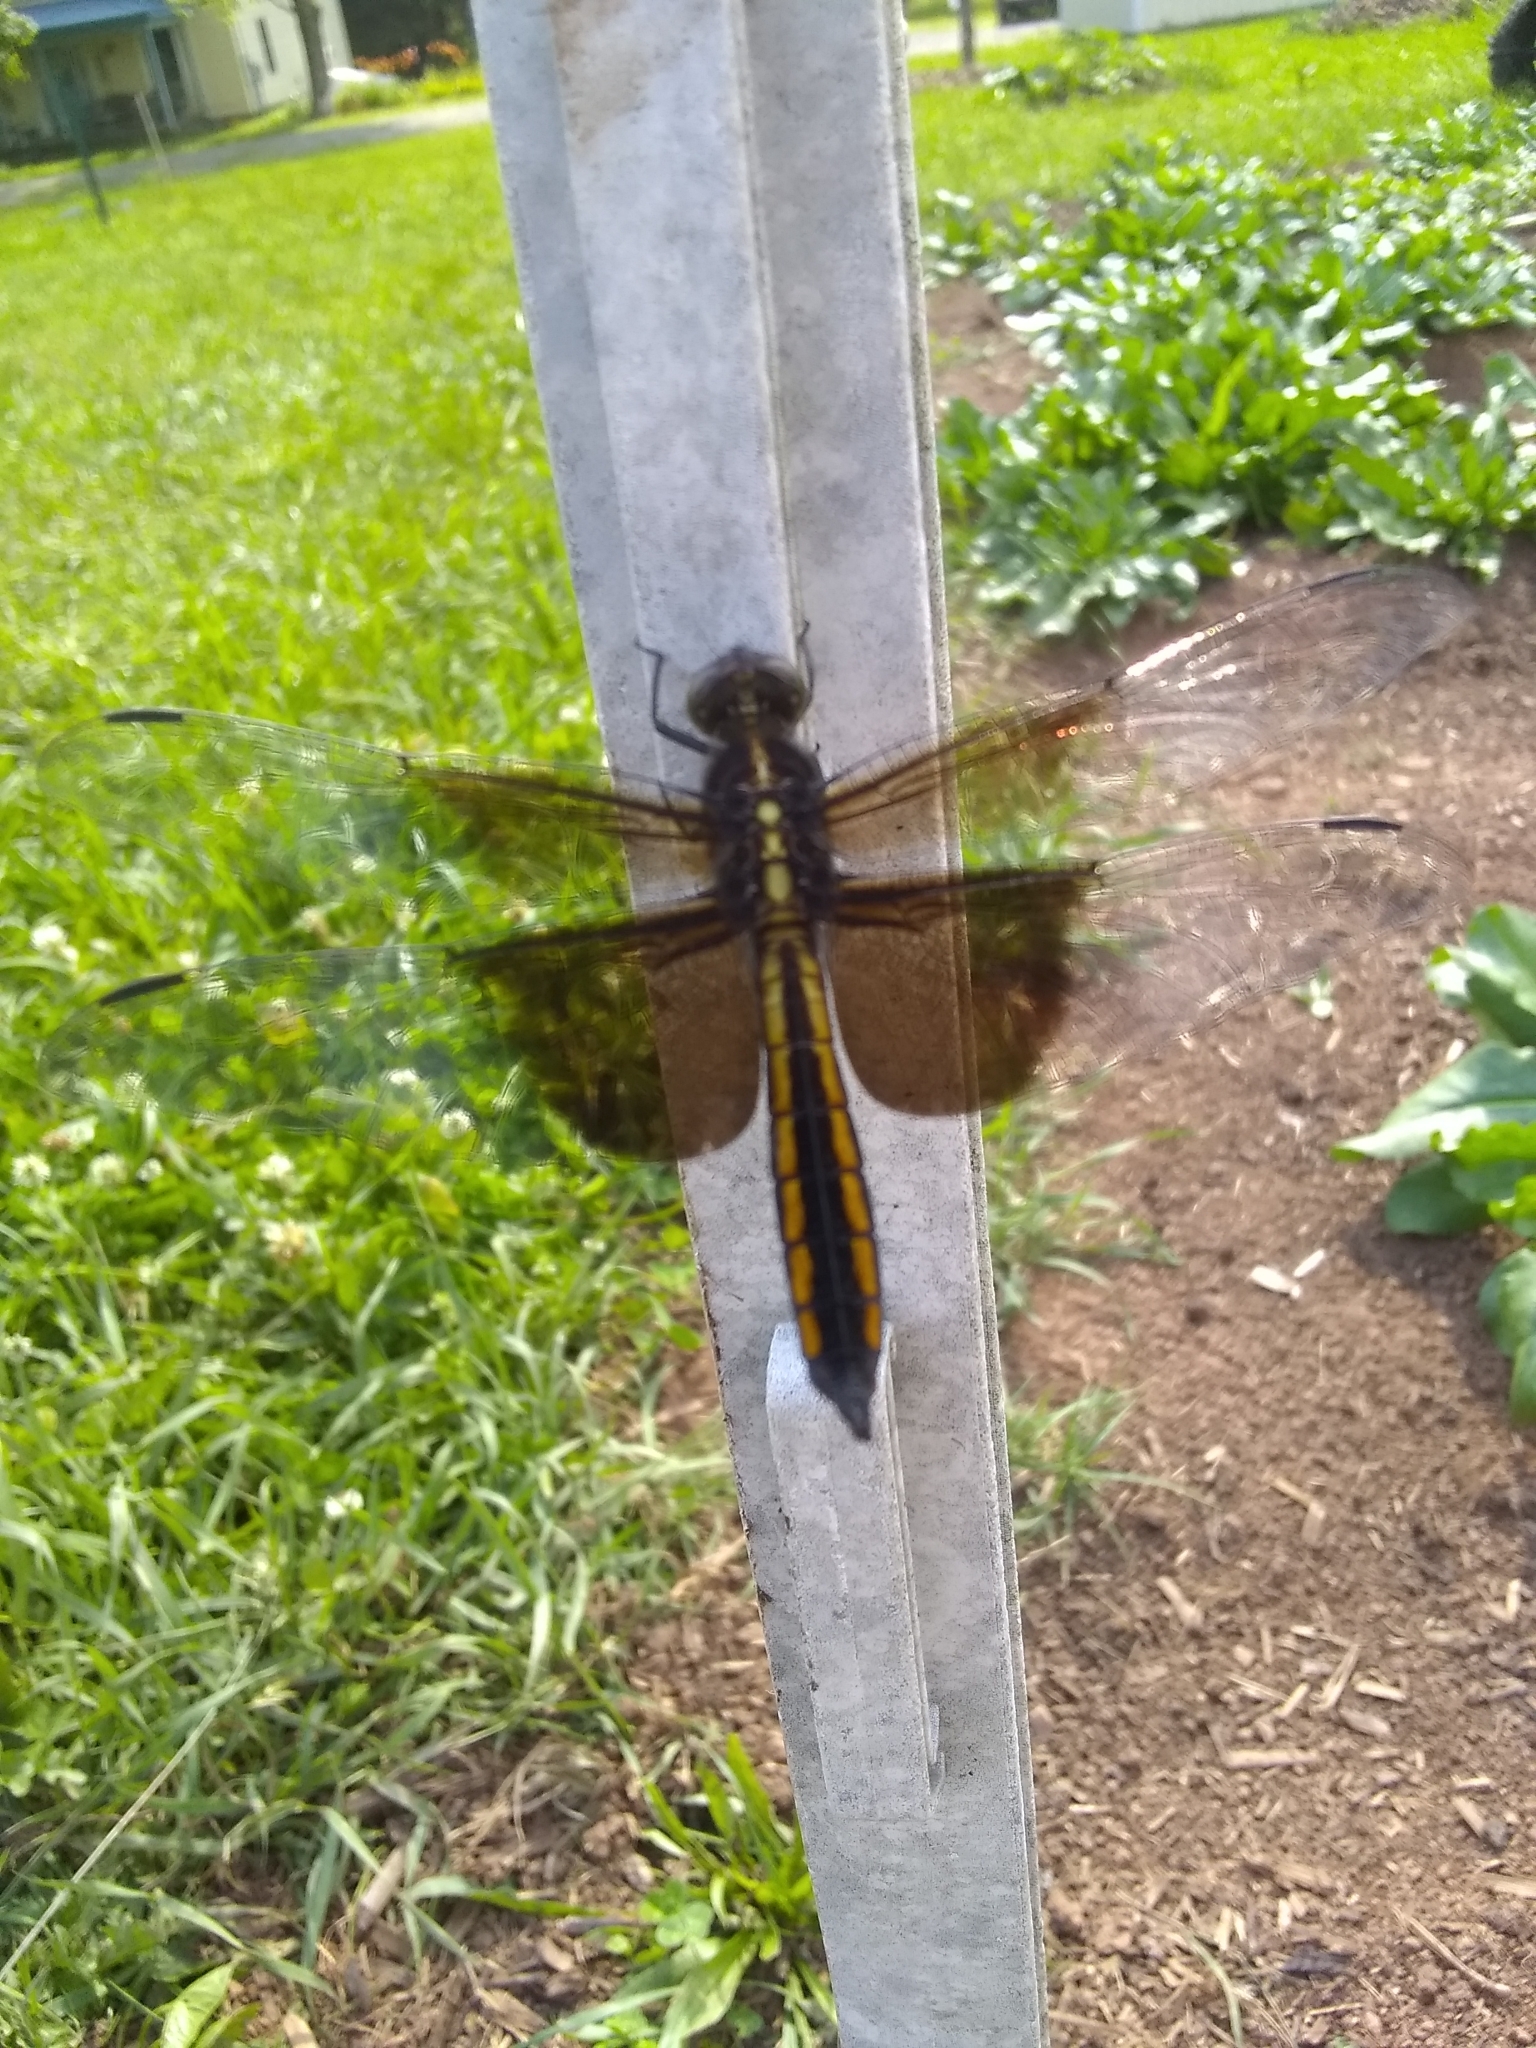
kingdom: Animalia
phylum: Arthropoda
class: Insecta
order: Odonata
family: Libellulidae
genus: Libellula
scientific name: Libellula luctuosa
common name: Widow skimmer
